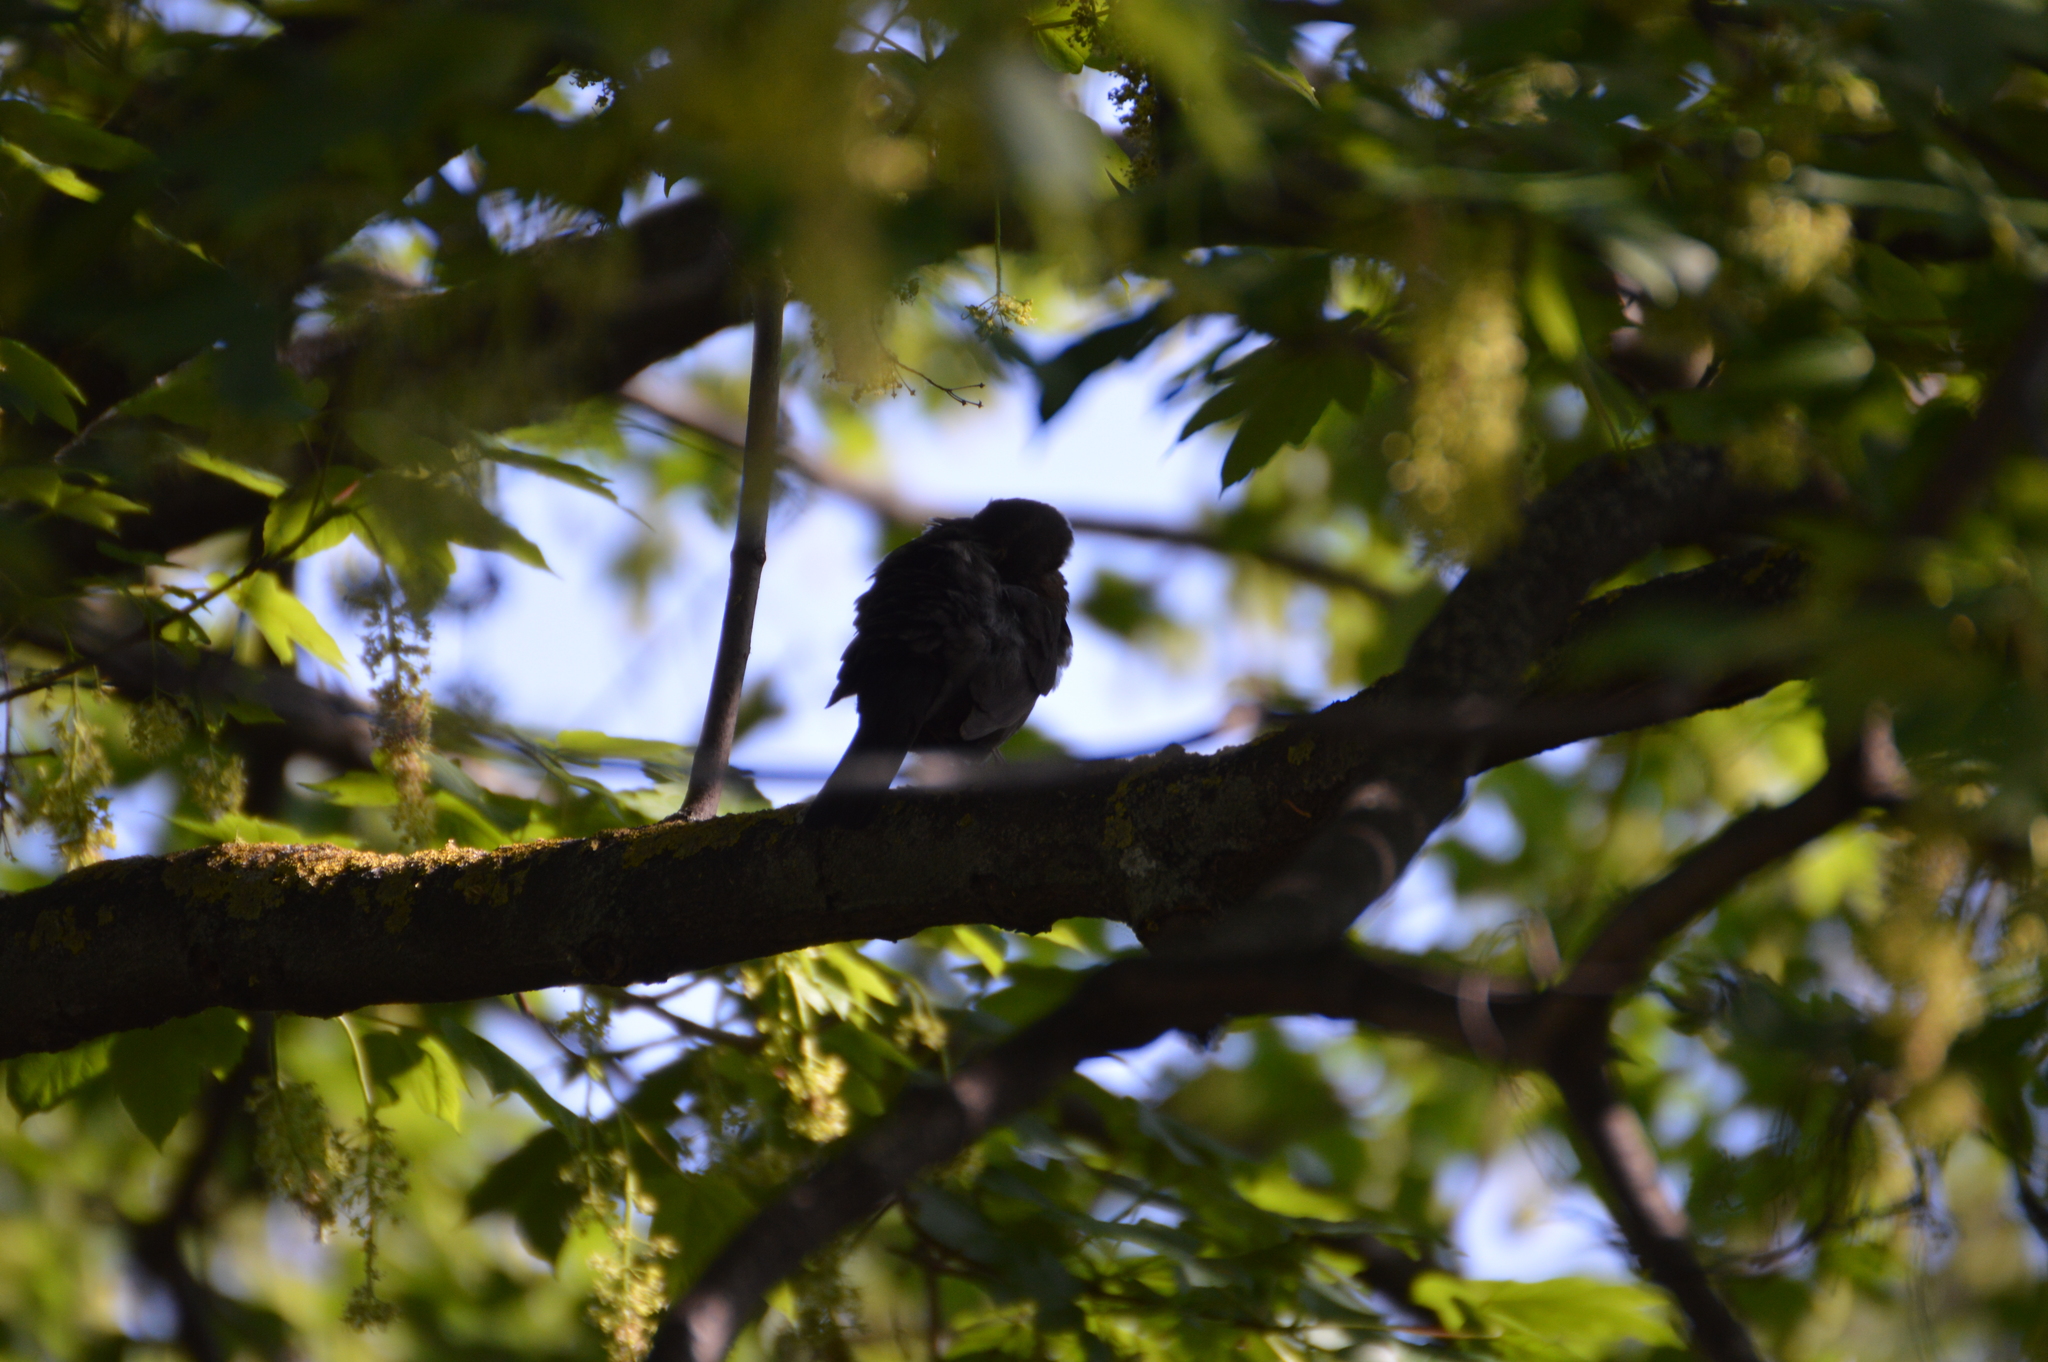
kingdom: Animalia
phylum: Chordata
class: Aves
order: Passeriformes
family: Turdidae
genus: Turdus
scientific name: Turdus merula
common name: Common blackbird
